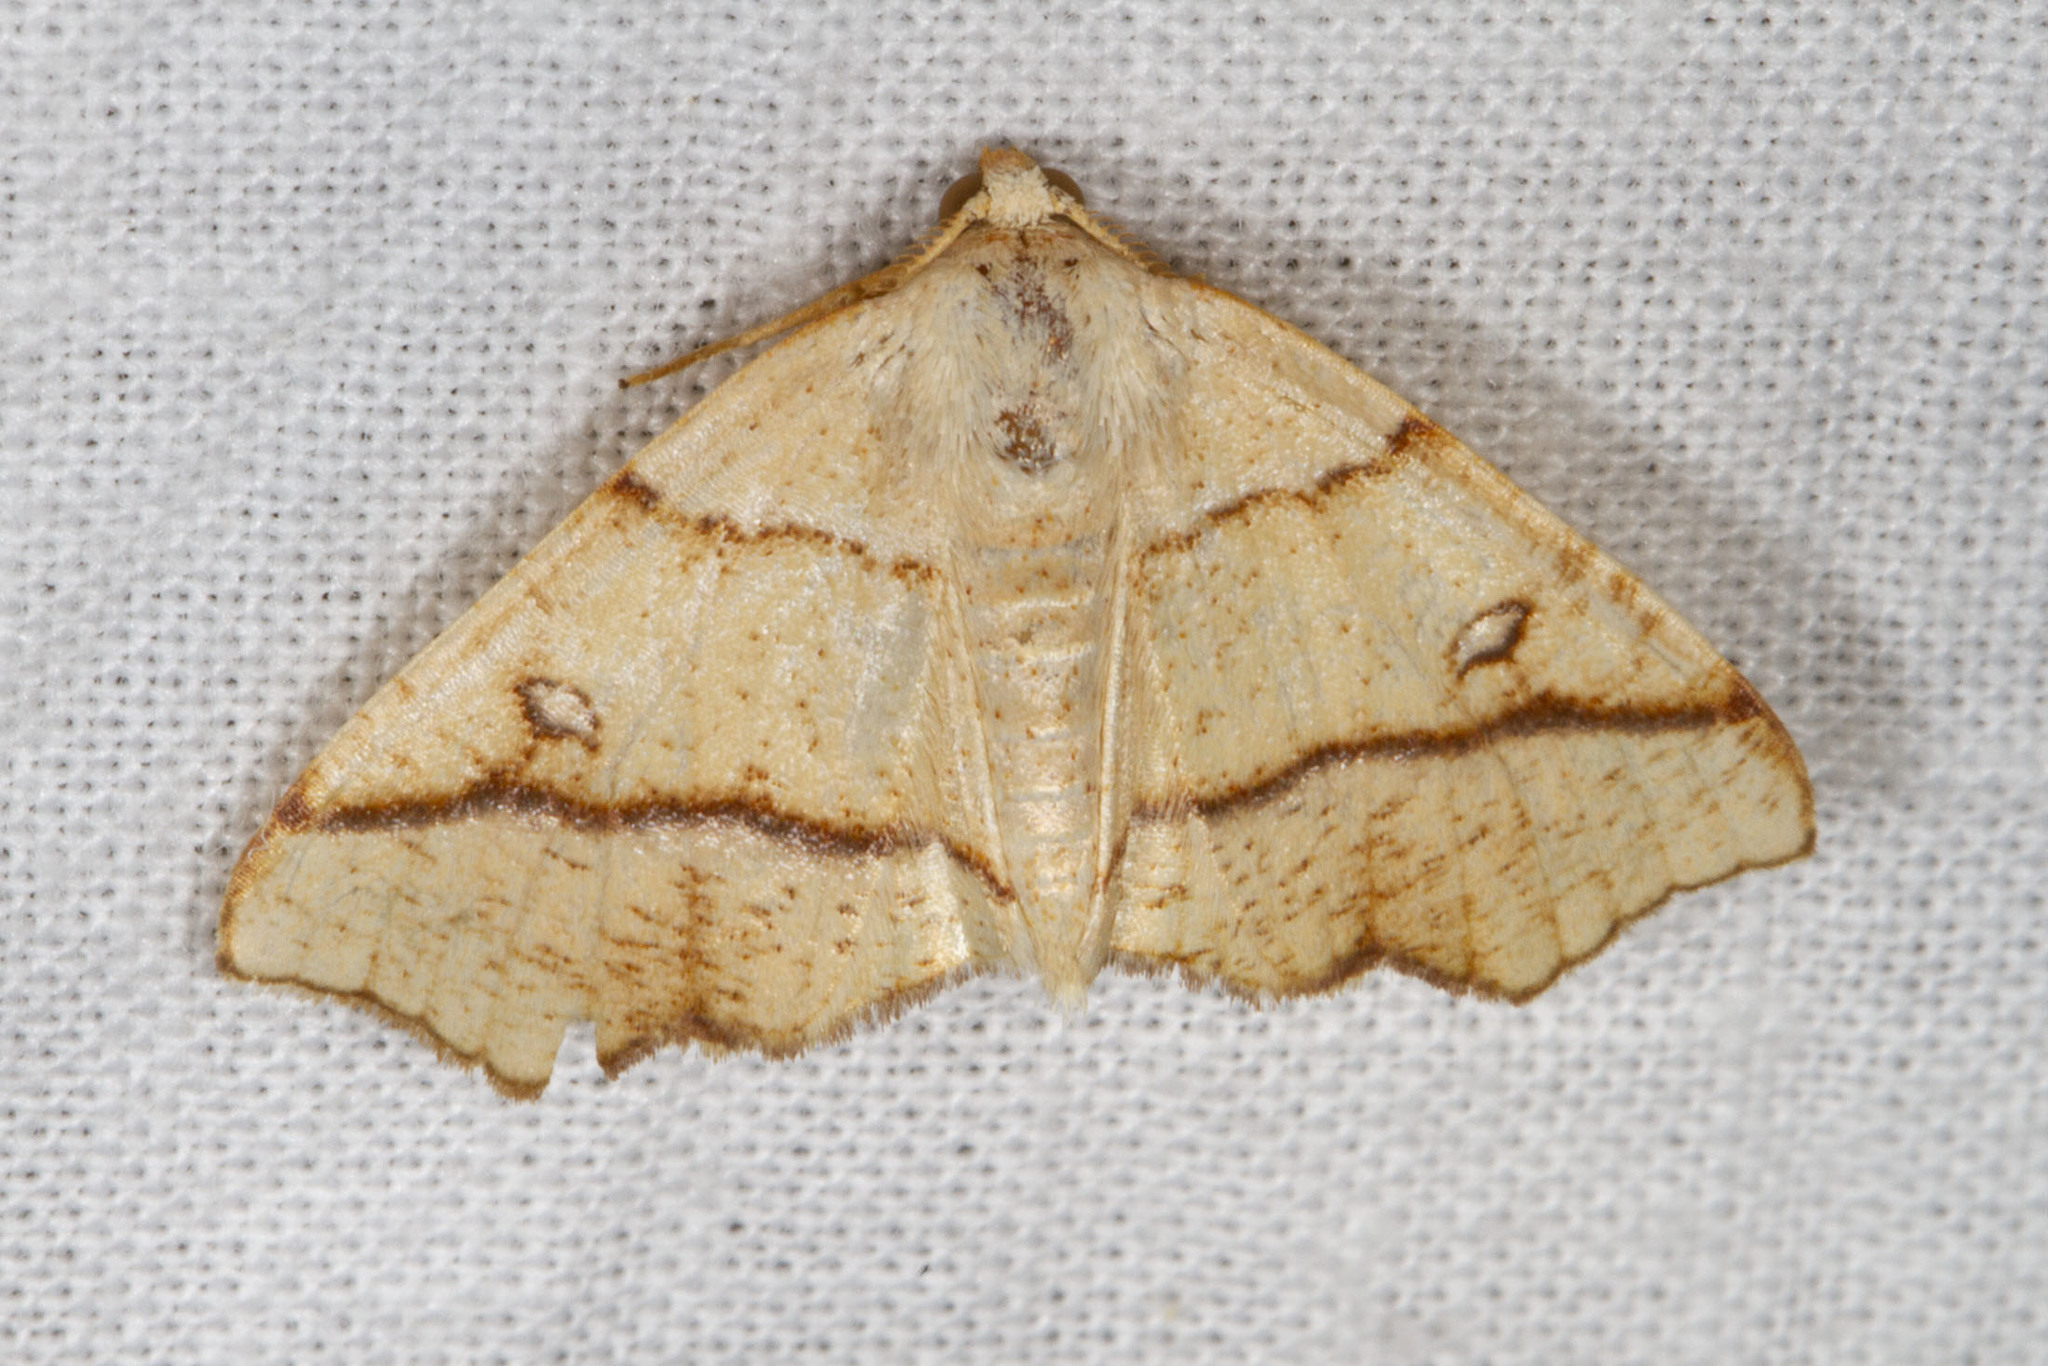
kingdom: Animalia
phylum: Arthropoda
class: Insecta
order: Lepidoptera
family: Geometridae
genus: Plagodis
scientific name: Plagodis alcoolaria
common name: Hollow-spotted plagodis
